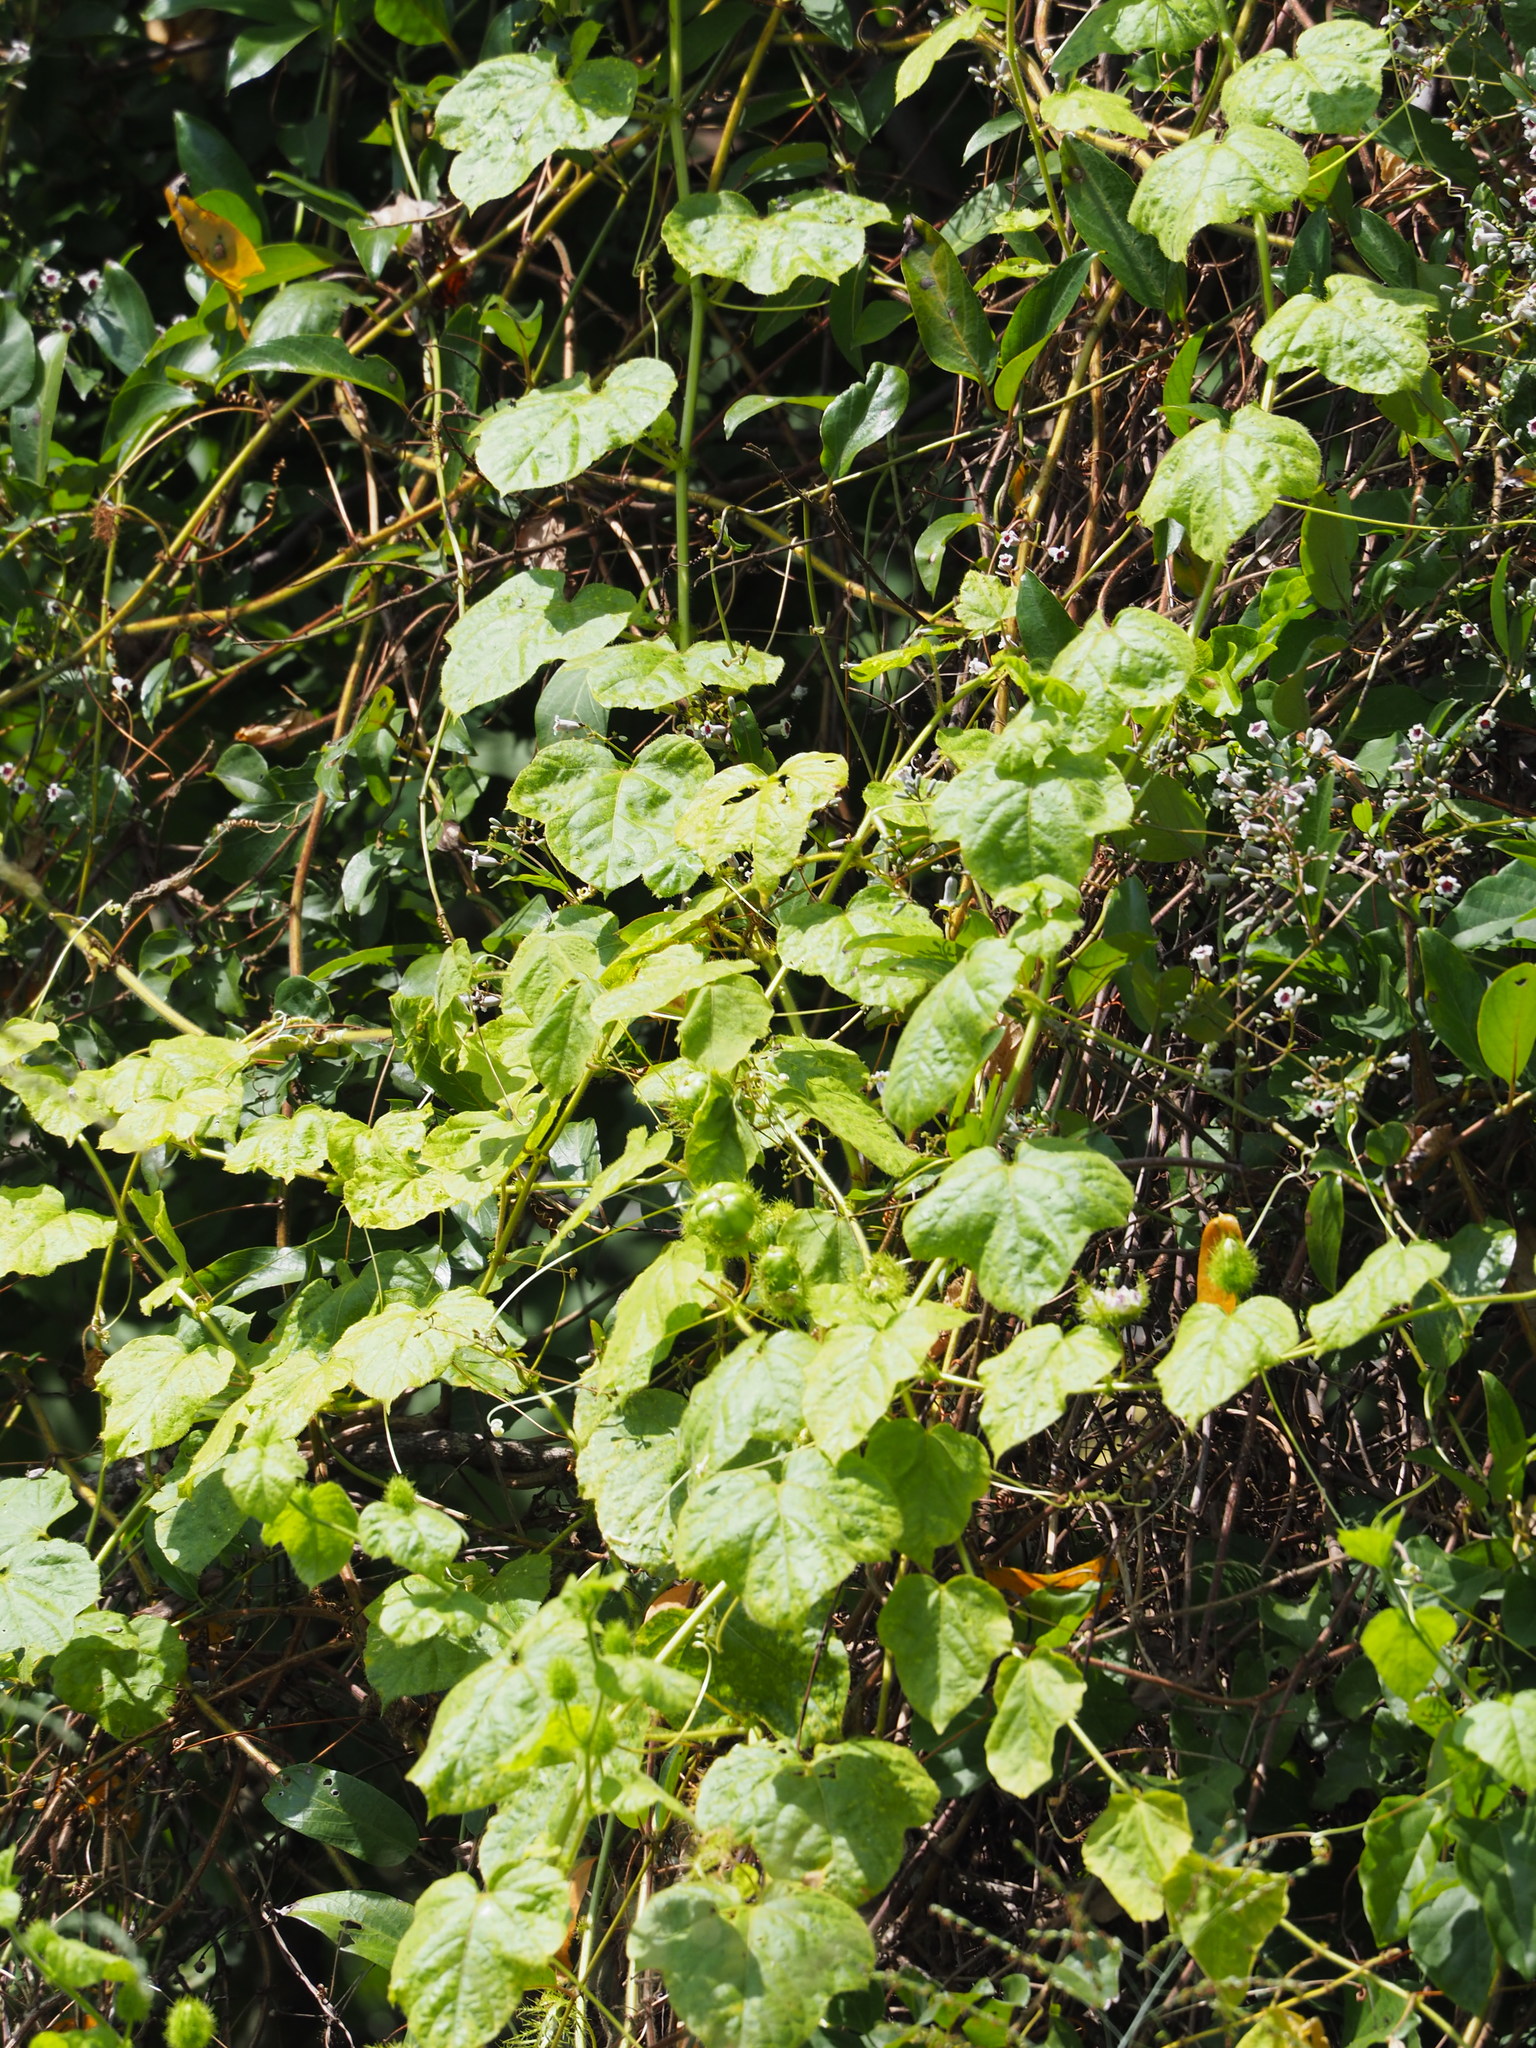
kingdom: Plantae
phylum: Tracheophyta
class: Magnoliopsida
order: Malpighiales
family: Passifloraceae
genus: Passiflora
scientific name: Passiflora vesicaria
